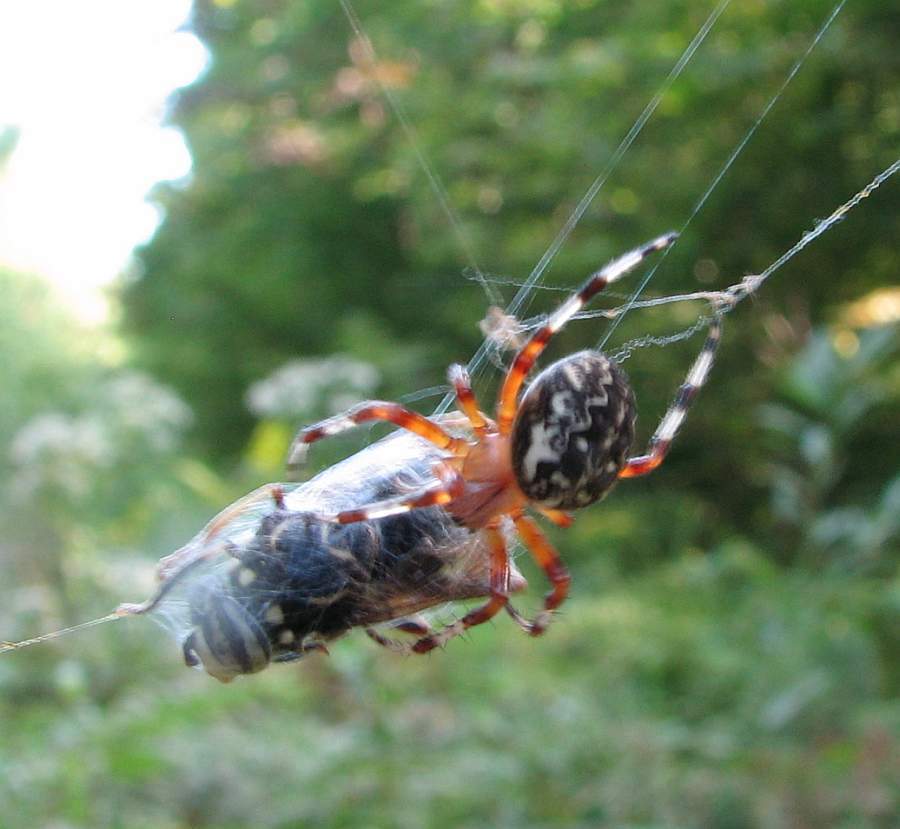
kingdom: Animalia
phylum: Arthropoda
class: Arachnida
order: Araneae
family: Araneidae
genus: Araneus
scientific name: Araneus marmoreus
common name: Marbled orbweaver
